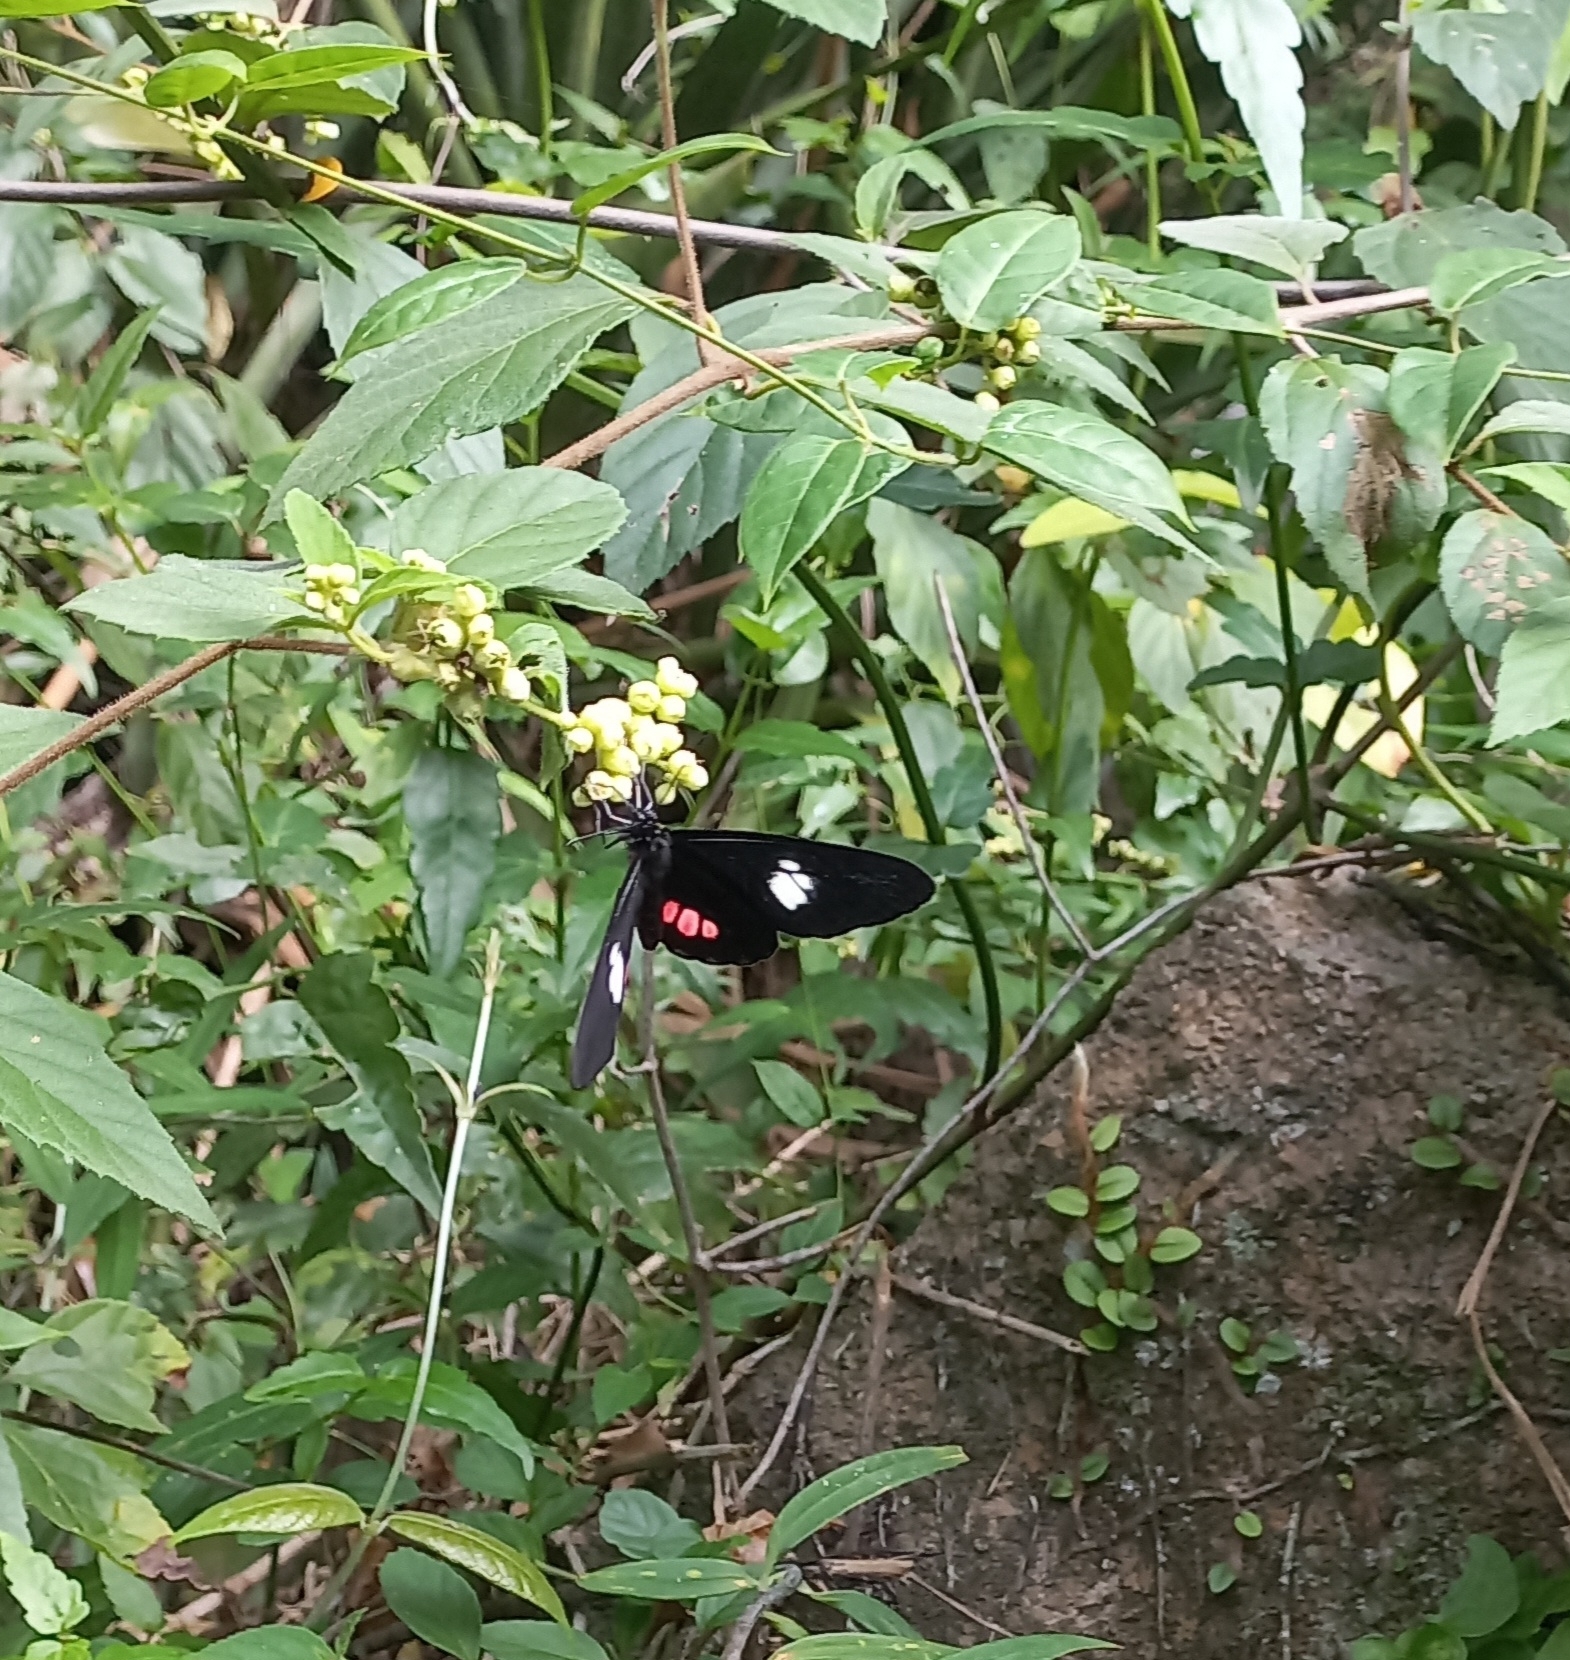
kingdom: Animalia
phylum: Arthropoda
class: Insecta
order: Lepidoptera
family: Pieridae
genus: Archonias
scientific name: Archonias brassolis
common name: Cattleheart white
